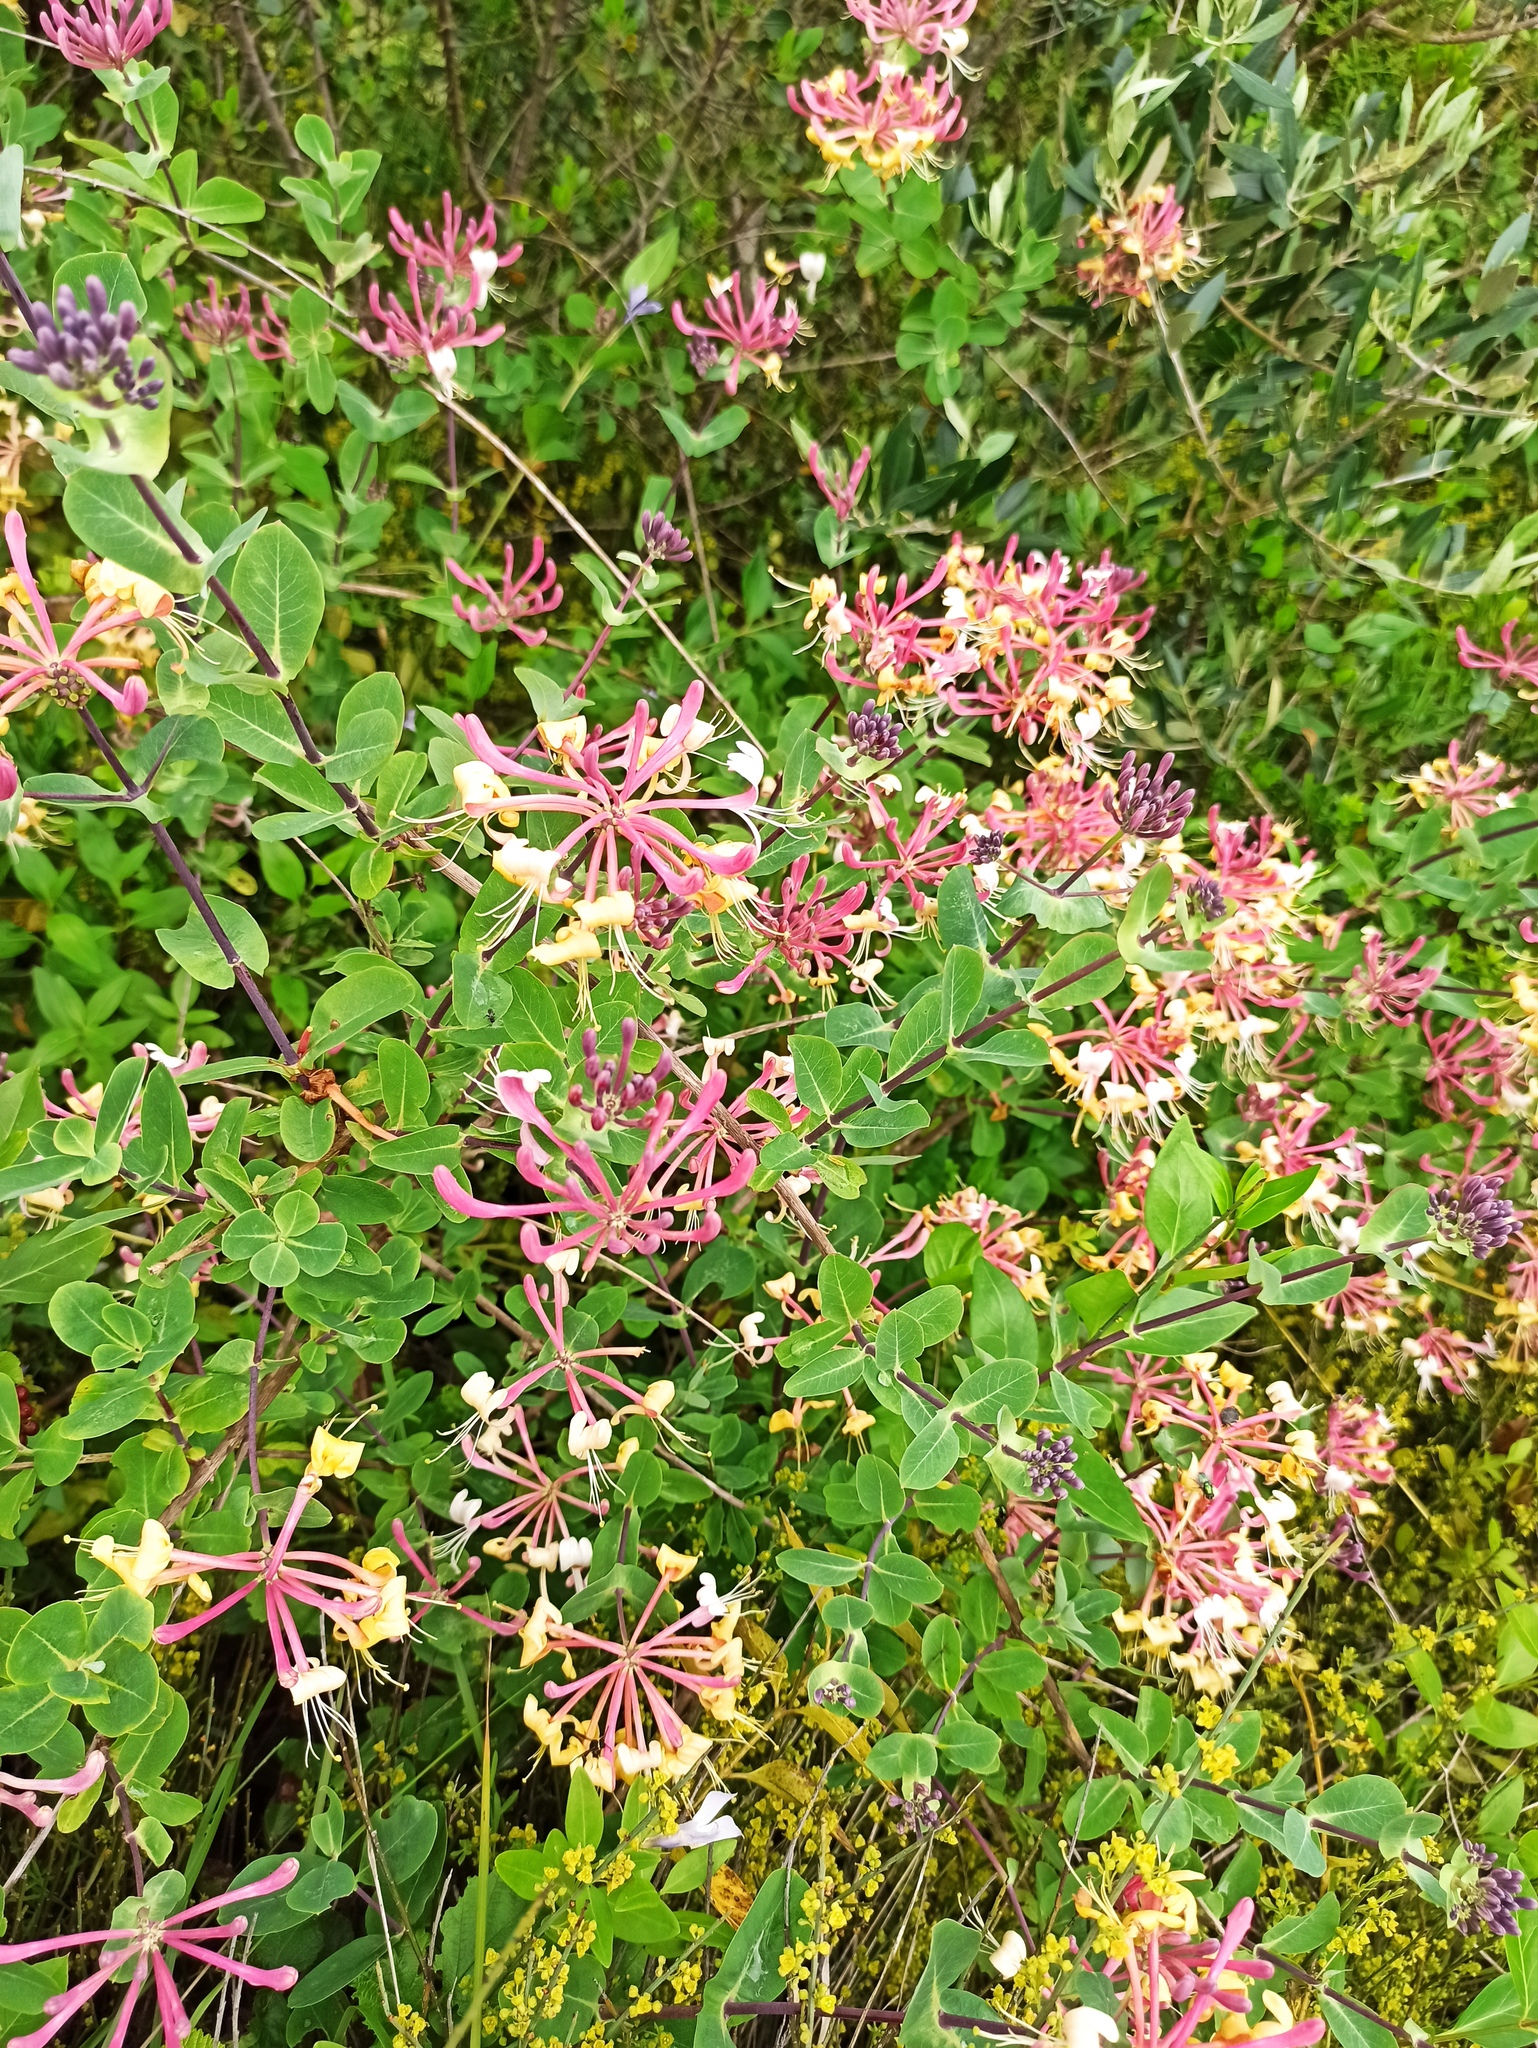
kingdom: Plantae
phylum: Tracheophyta
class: Magnoliopsida
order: Dipsacales
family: Caprifoliaceae
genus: Lonicera
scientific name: Lonicera etrusca
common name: Etruscan honeysuckle
